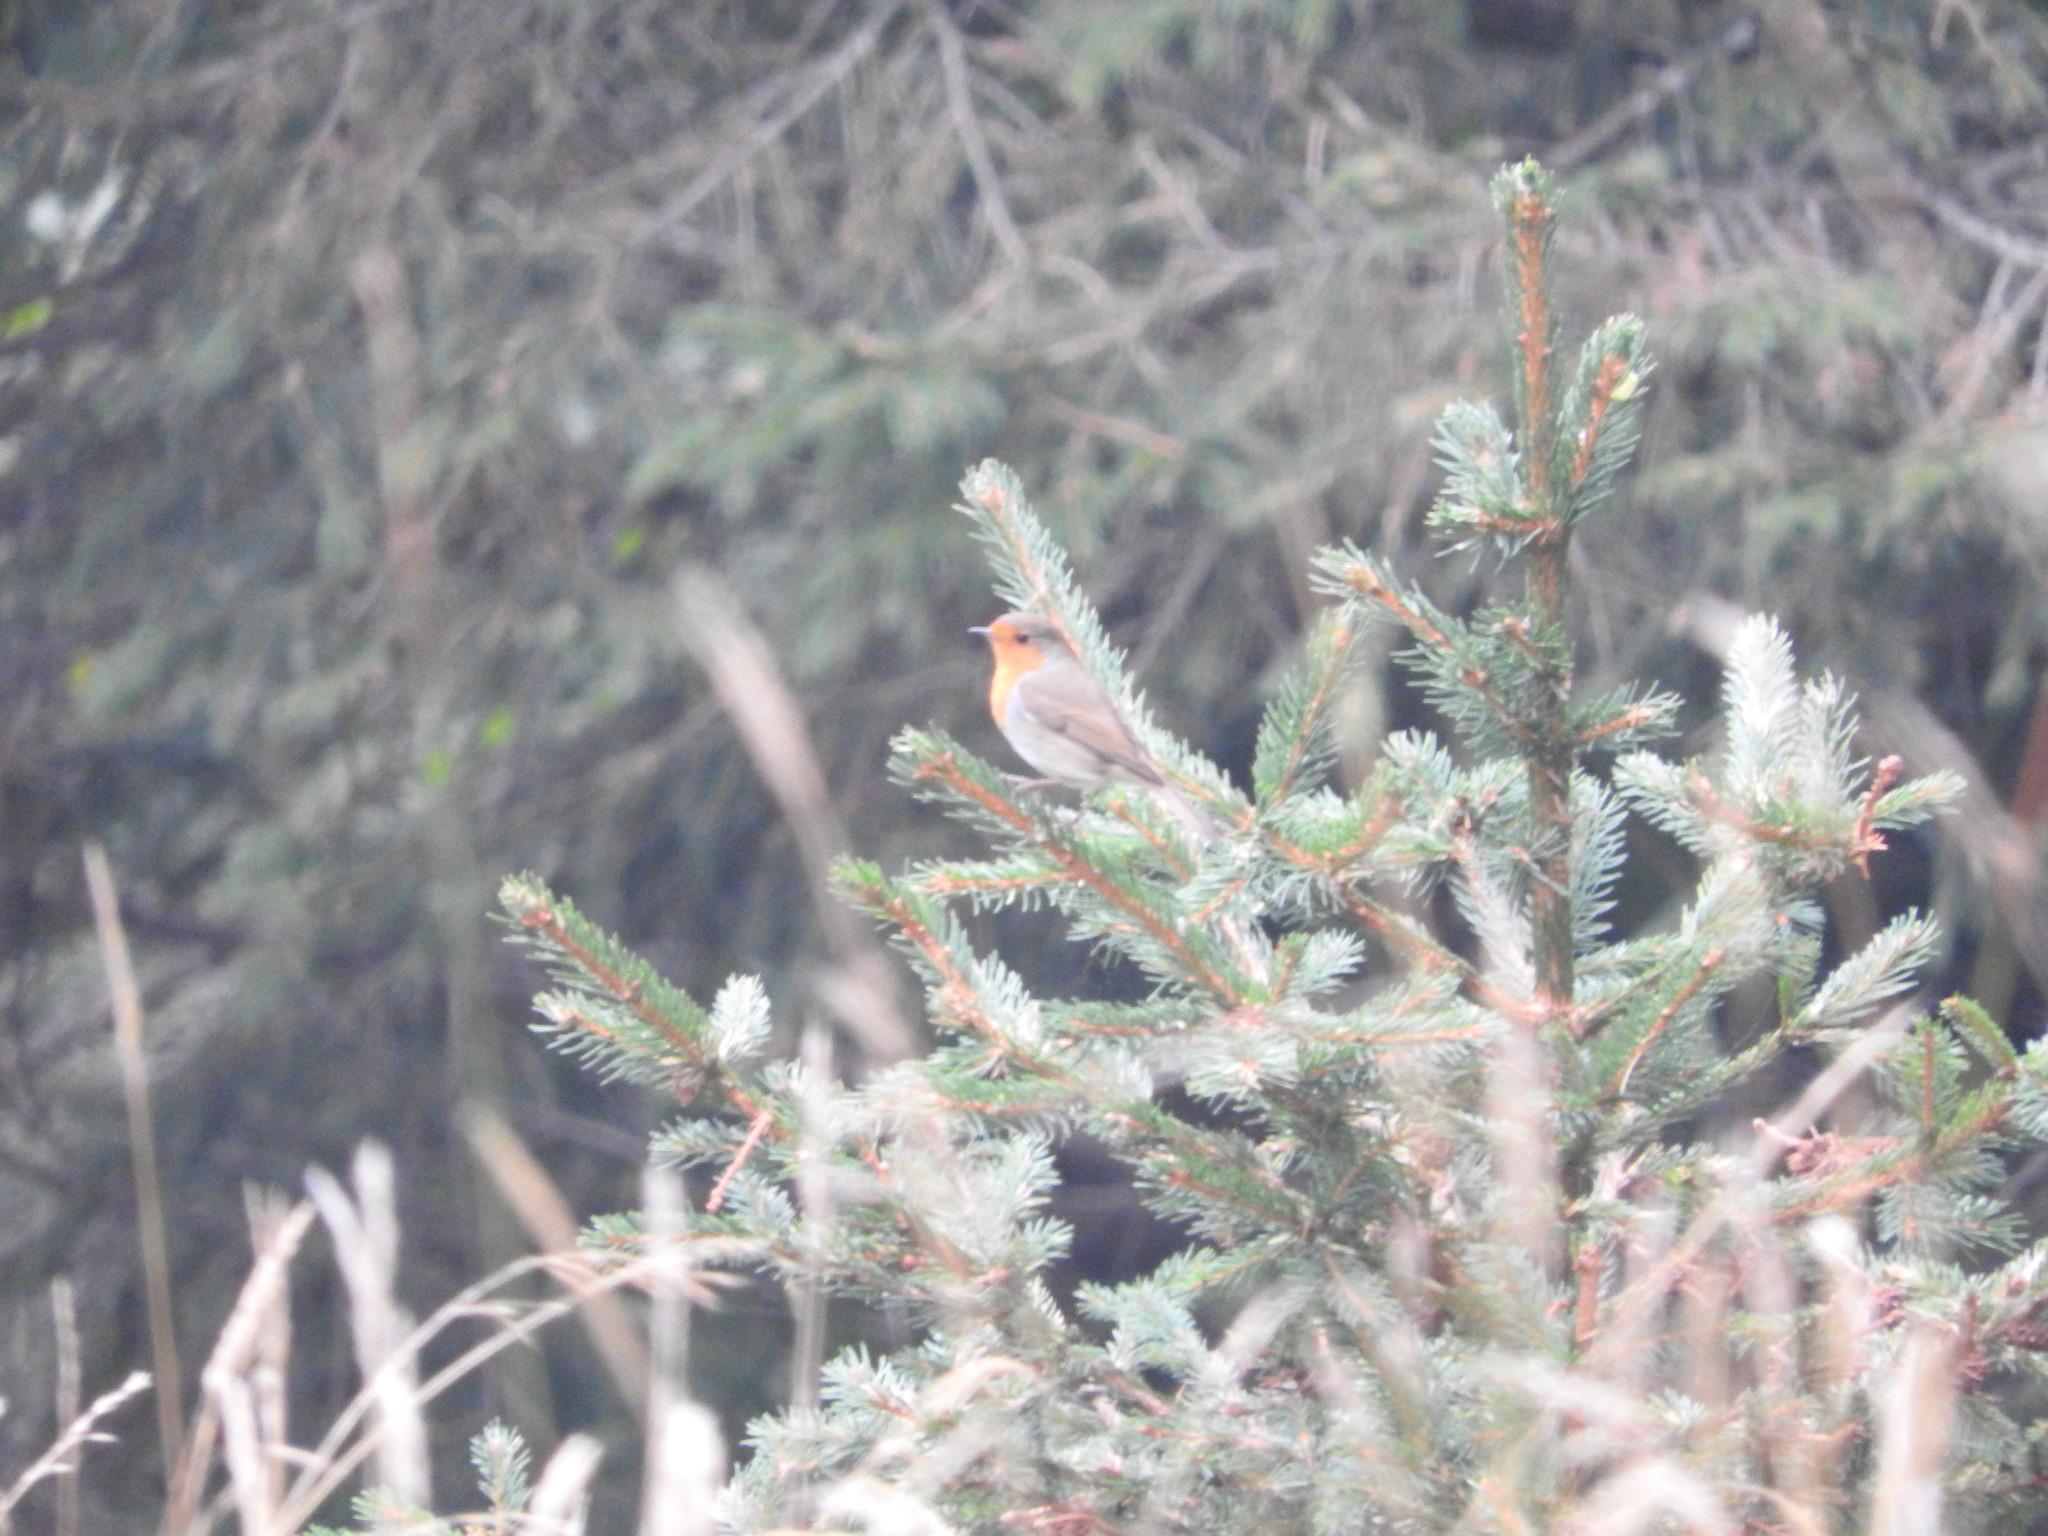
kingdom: Animalia
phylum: Chordata
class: Aves
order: Passeriformes
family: Muscicapidae
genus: Erithacus
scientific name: Erithacus rubecula
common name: European robin
